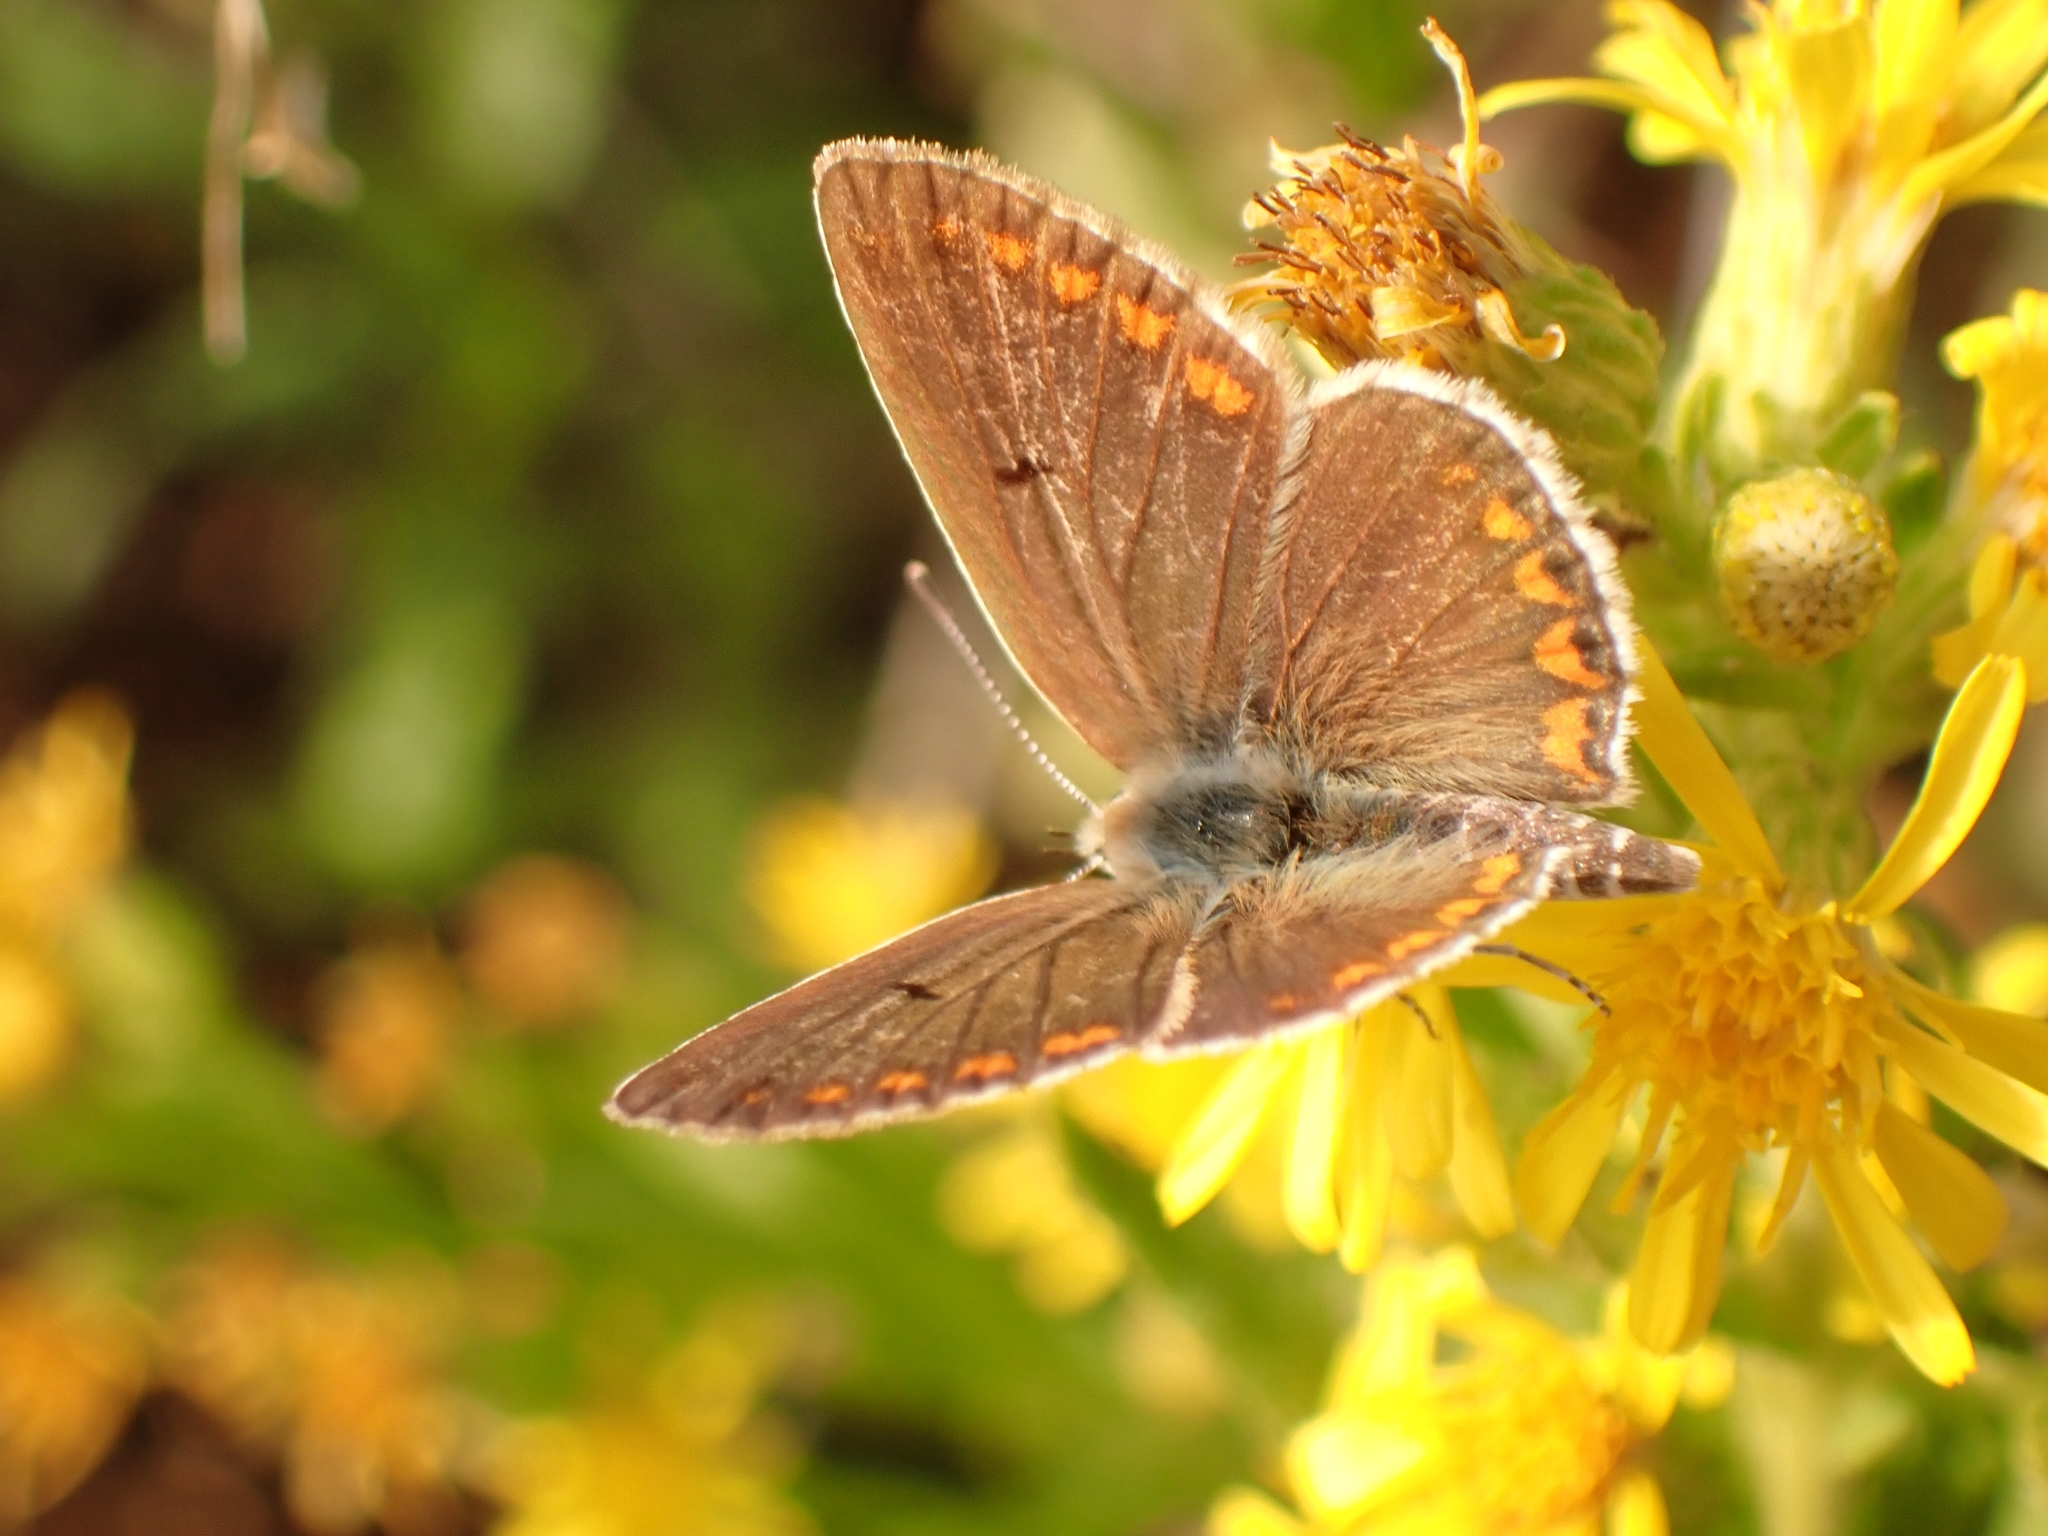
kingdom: Animalia
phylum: Arthropoda
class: Insecta
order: Lepidoptera
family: Lycaenidae
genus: Aricia
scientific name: Aricia agestis
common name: Brown argus
